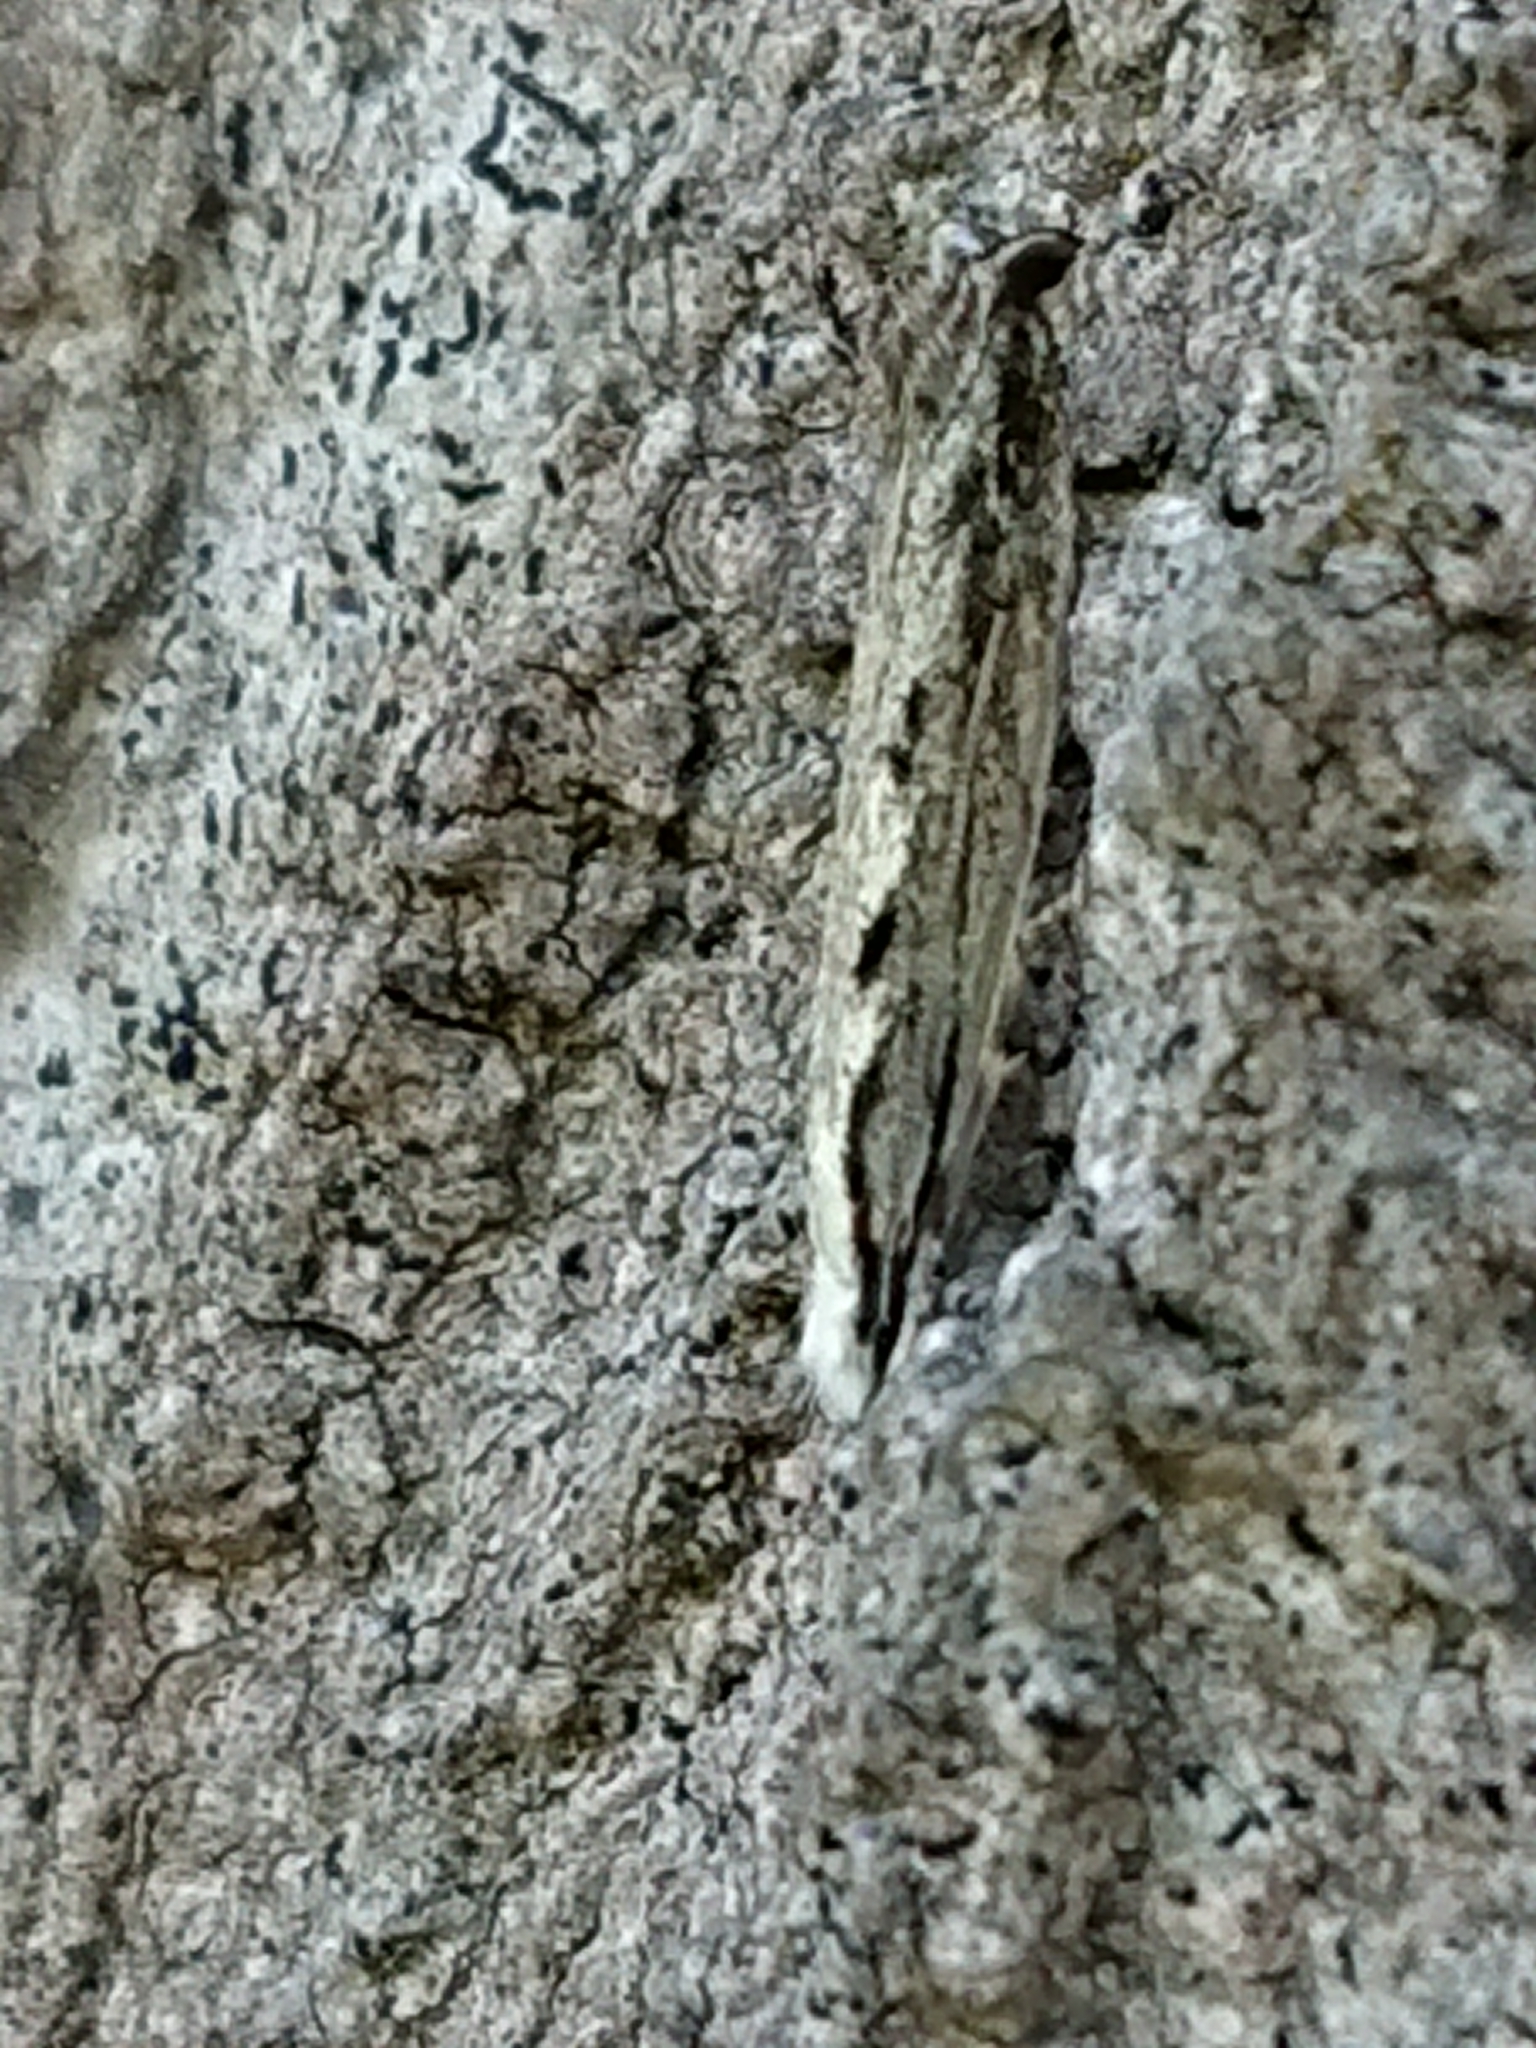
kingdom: Animalia
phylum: Arthropoda
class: Insecta
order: Lepidoptera
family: Tineidae
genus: Erechthias
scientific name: Erechthias fulguritella
